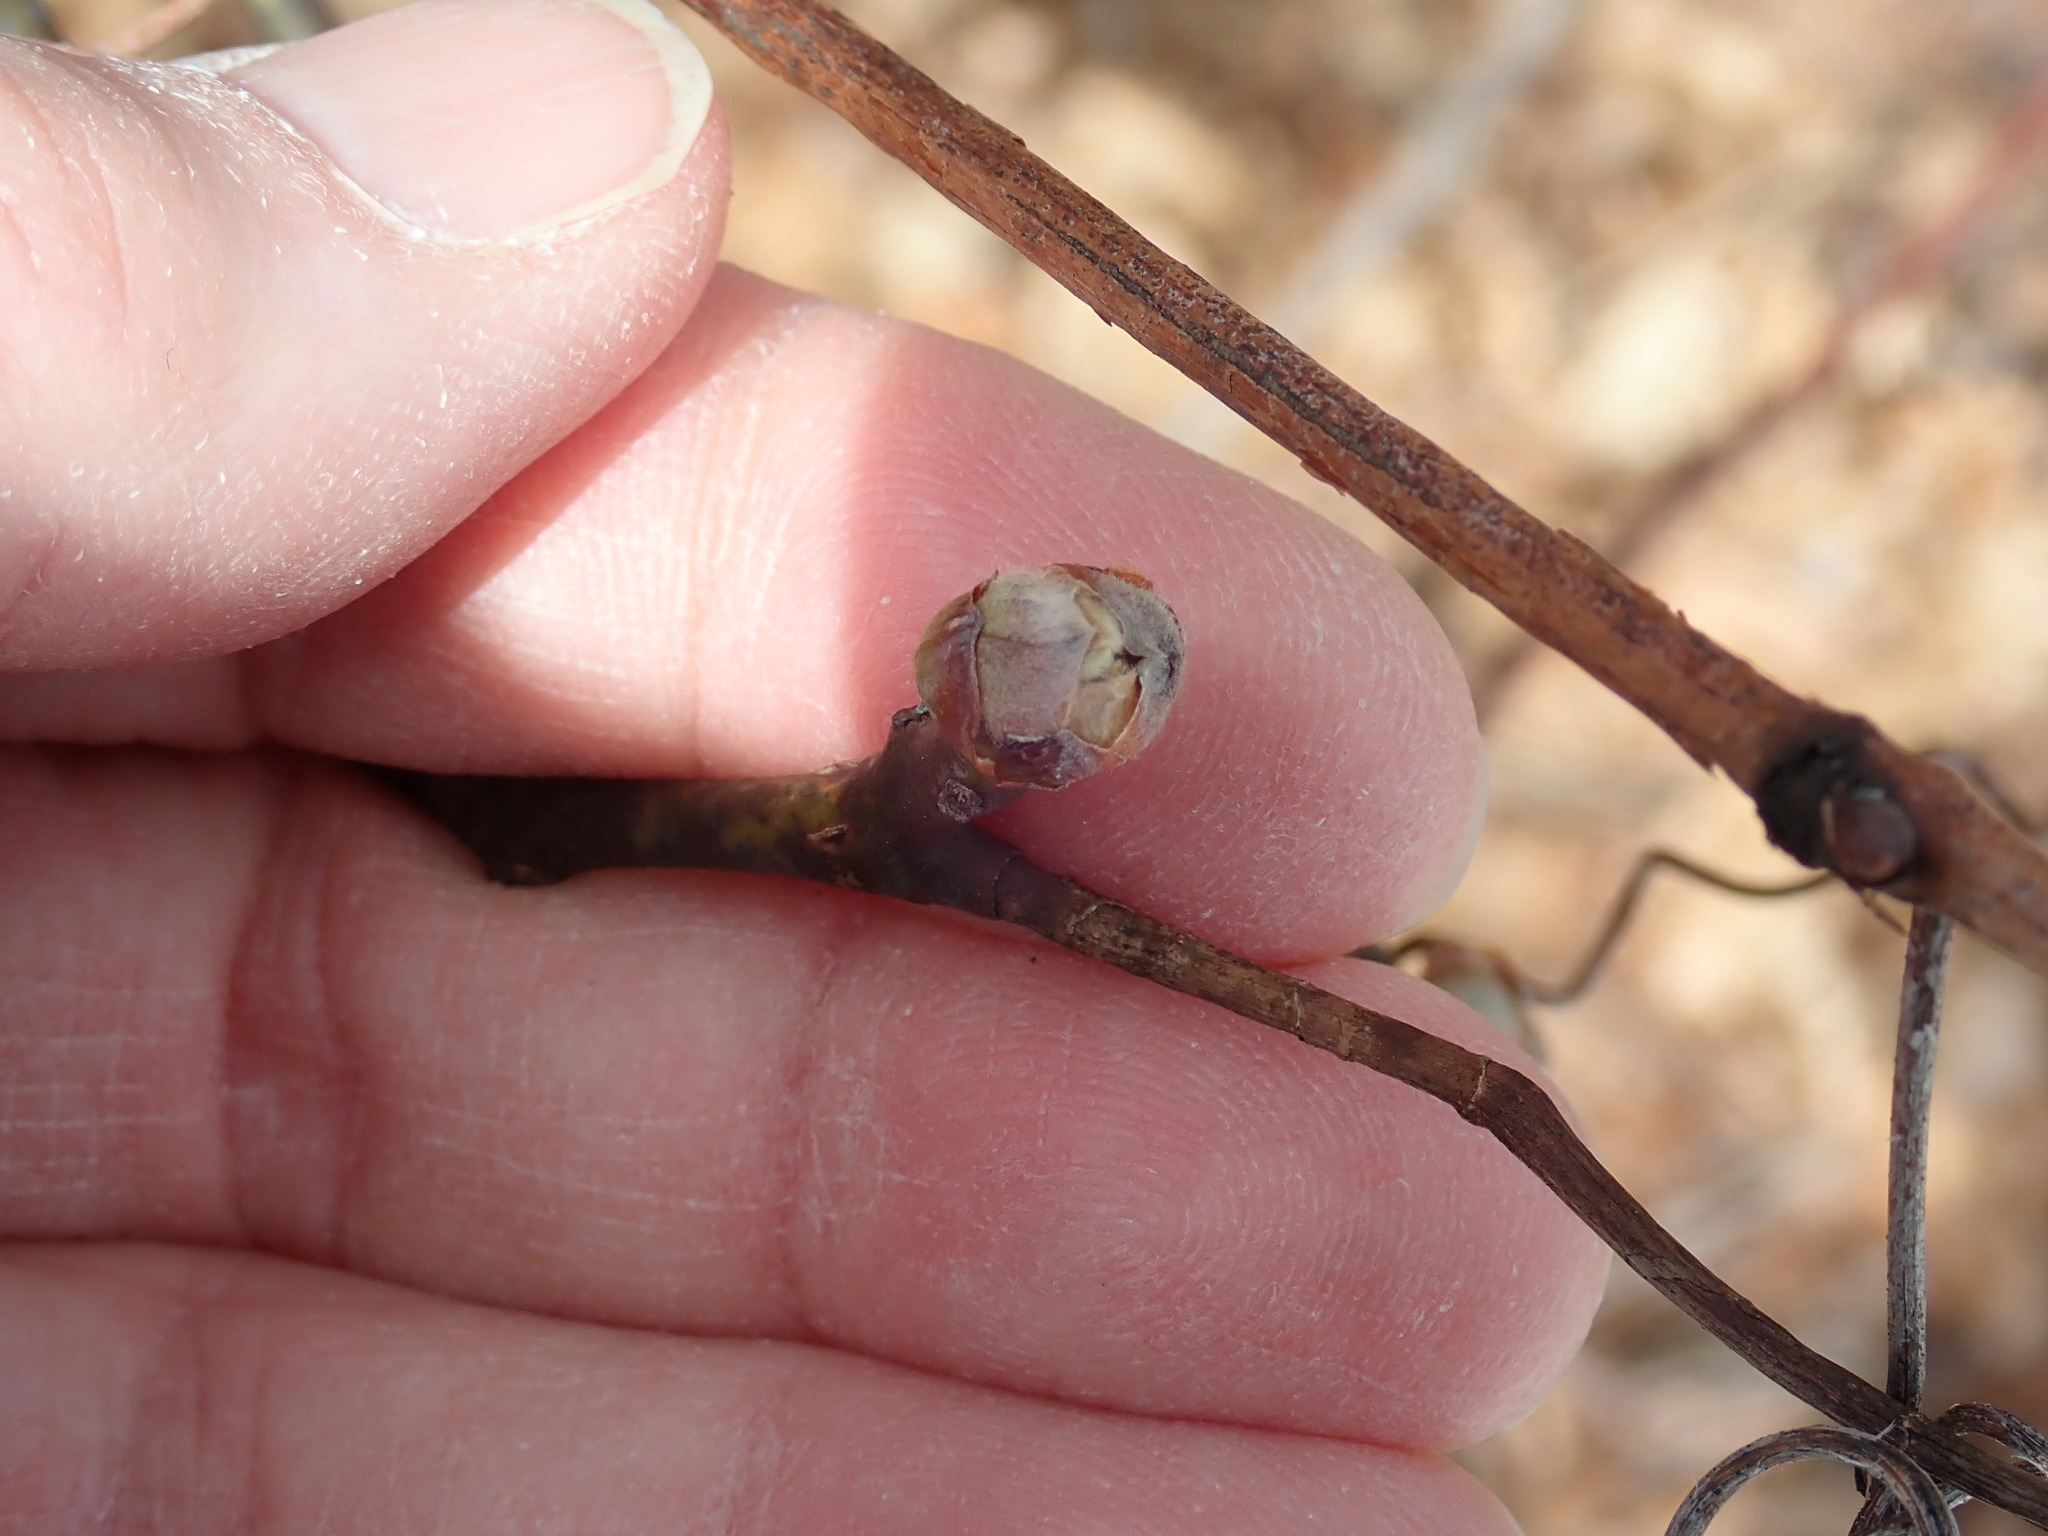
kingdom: Plantae
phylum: Tracheophyta
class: Magnoliopsida
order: Laurales
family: Lauraceae
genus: Sassafras
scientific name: Sassafras albidum
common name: Sassafras
